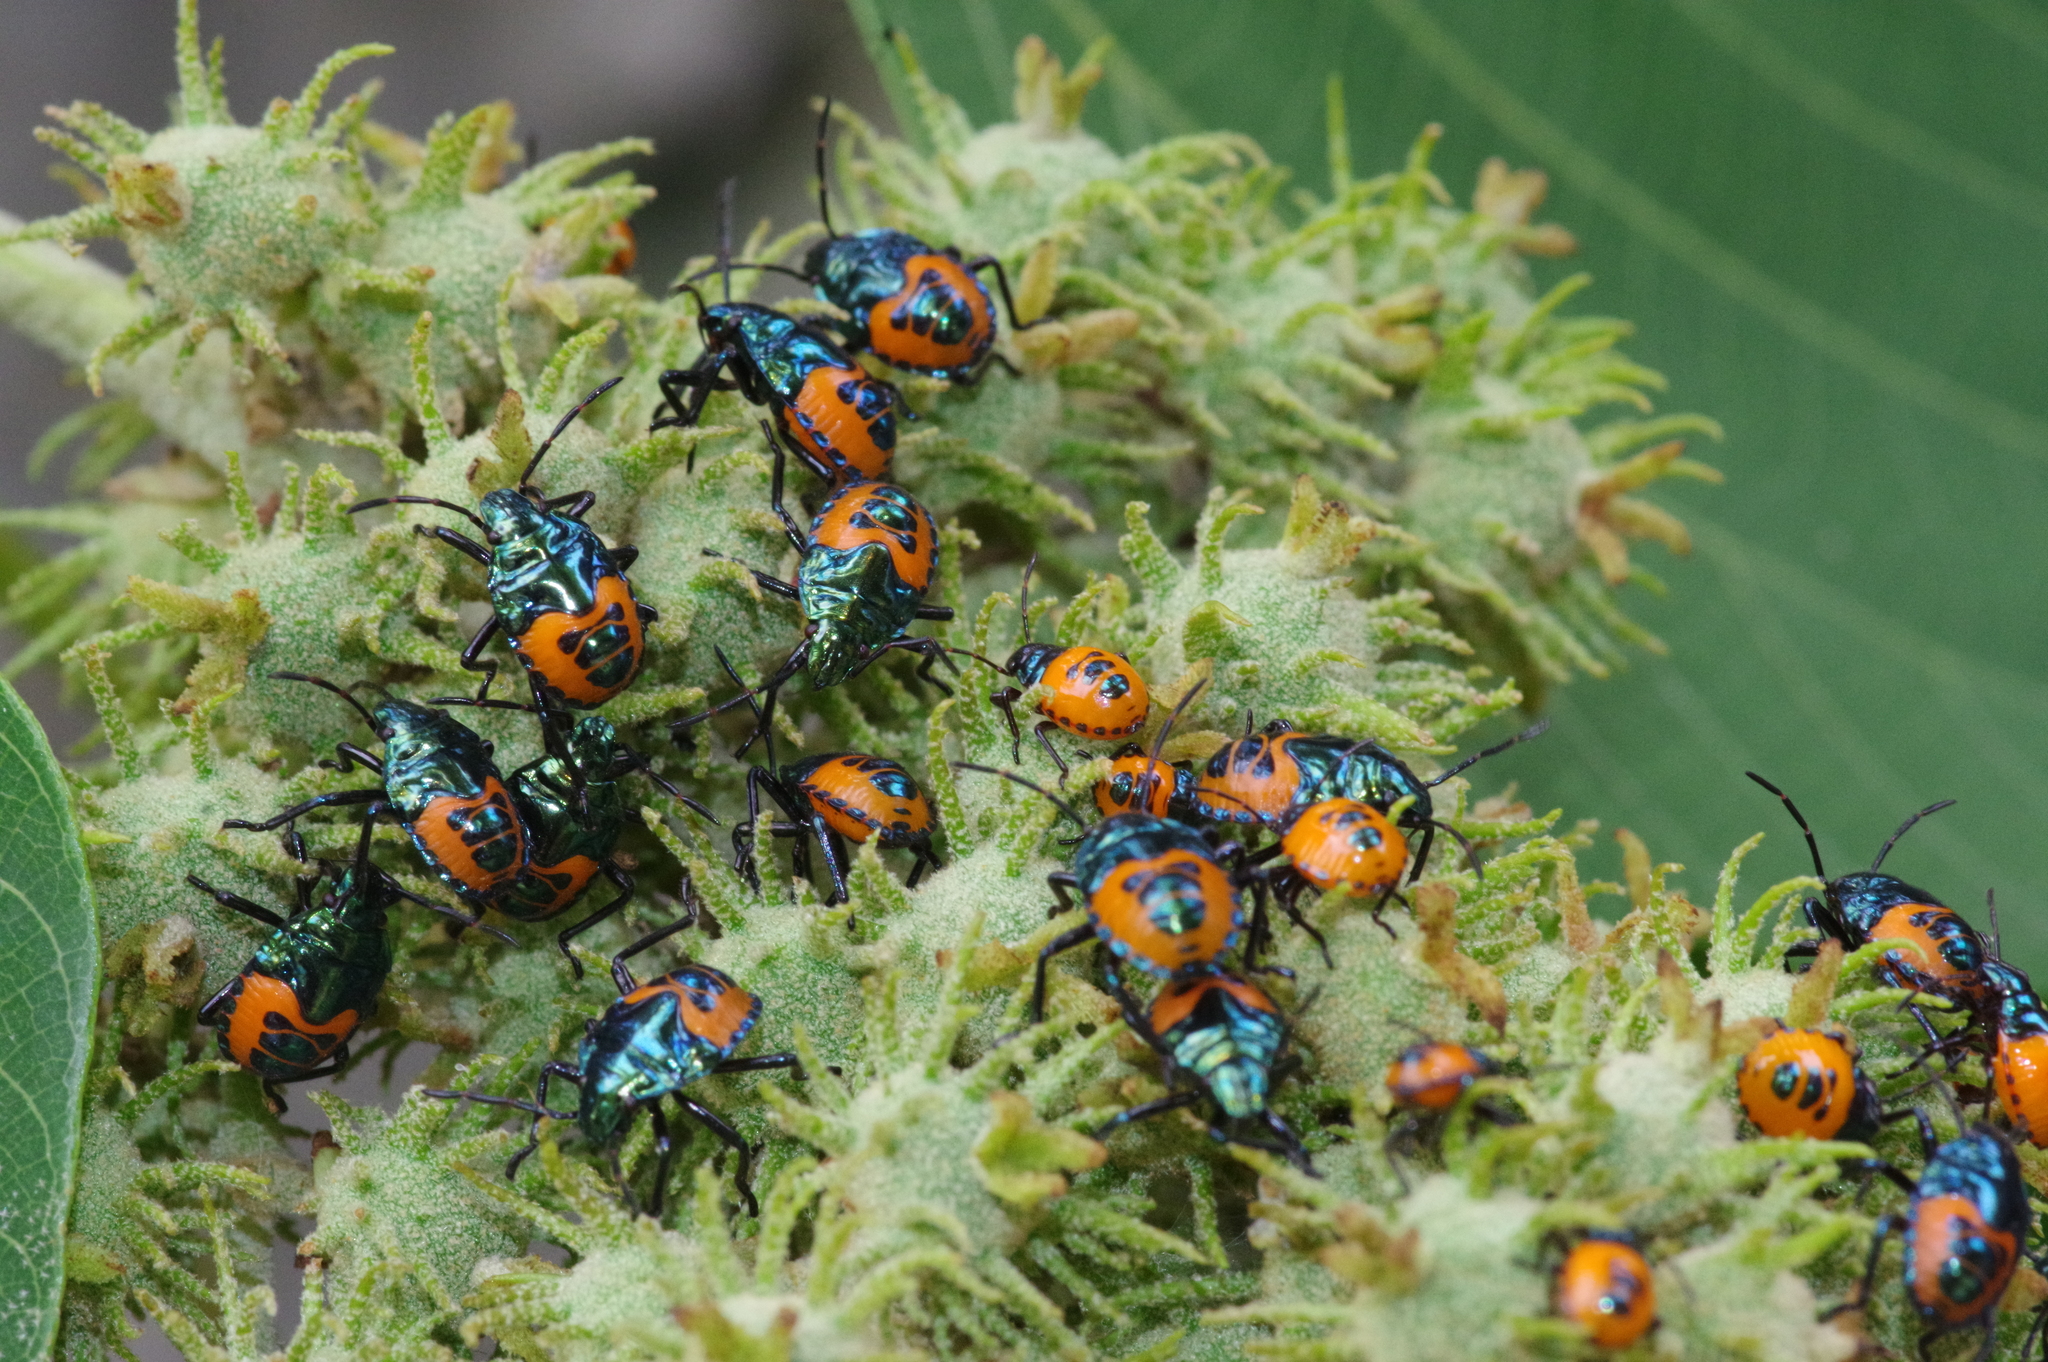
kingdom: Animalia
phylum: Arthropoda
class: Insecta
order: Hemiptera
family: Scutelleridae
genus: Cantao
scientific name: Cantao ocellatus
